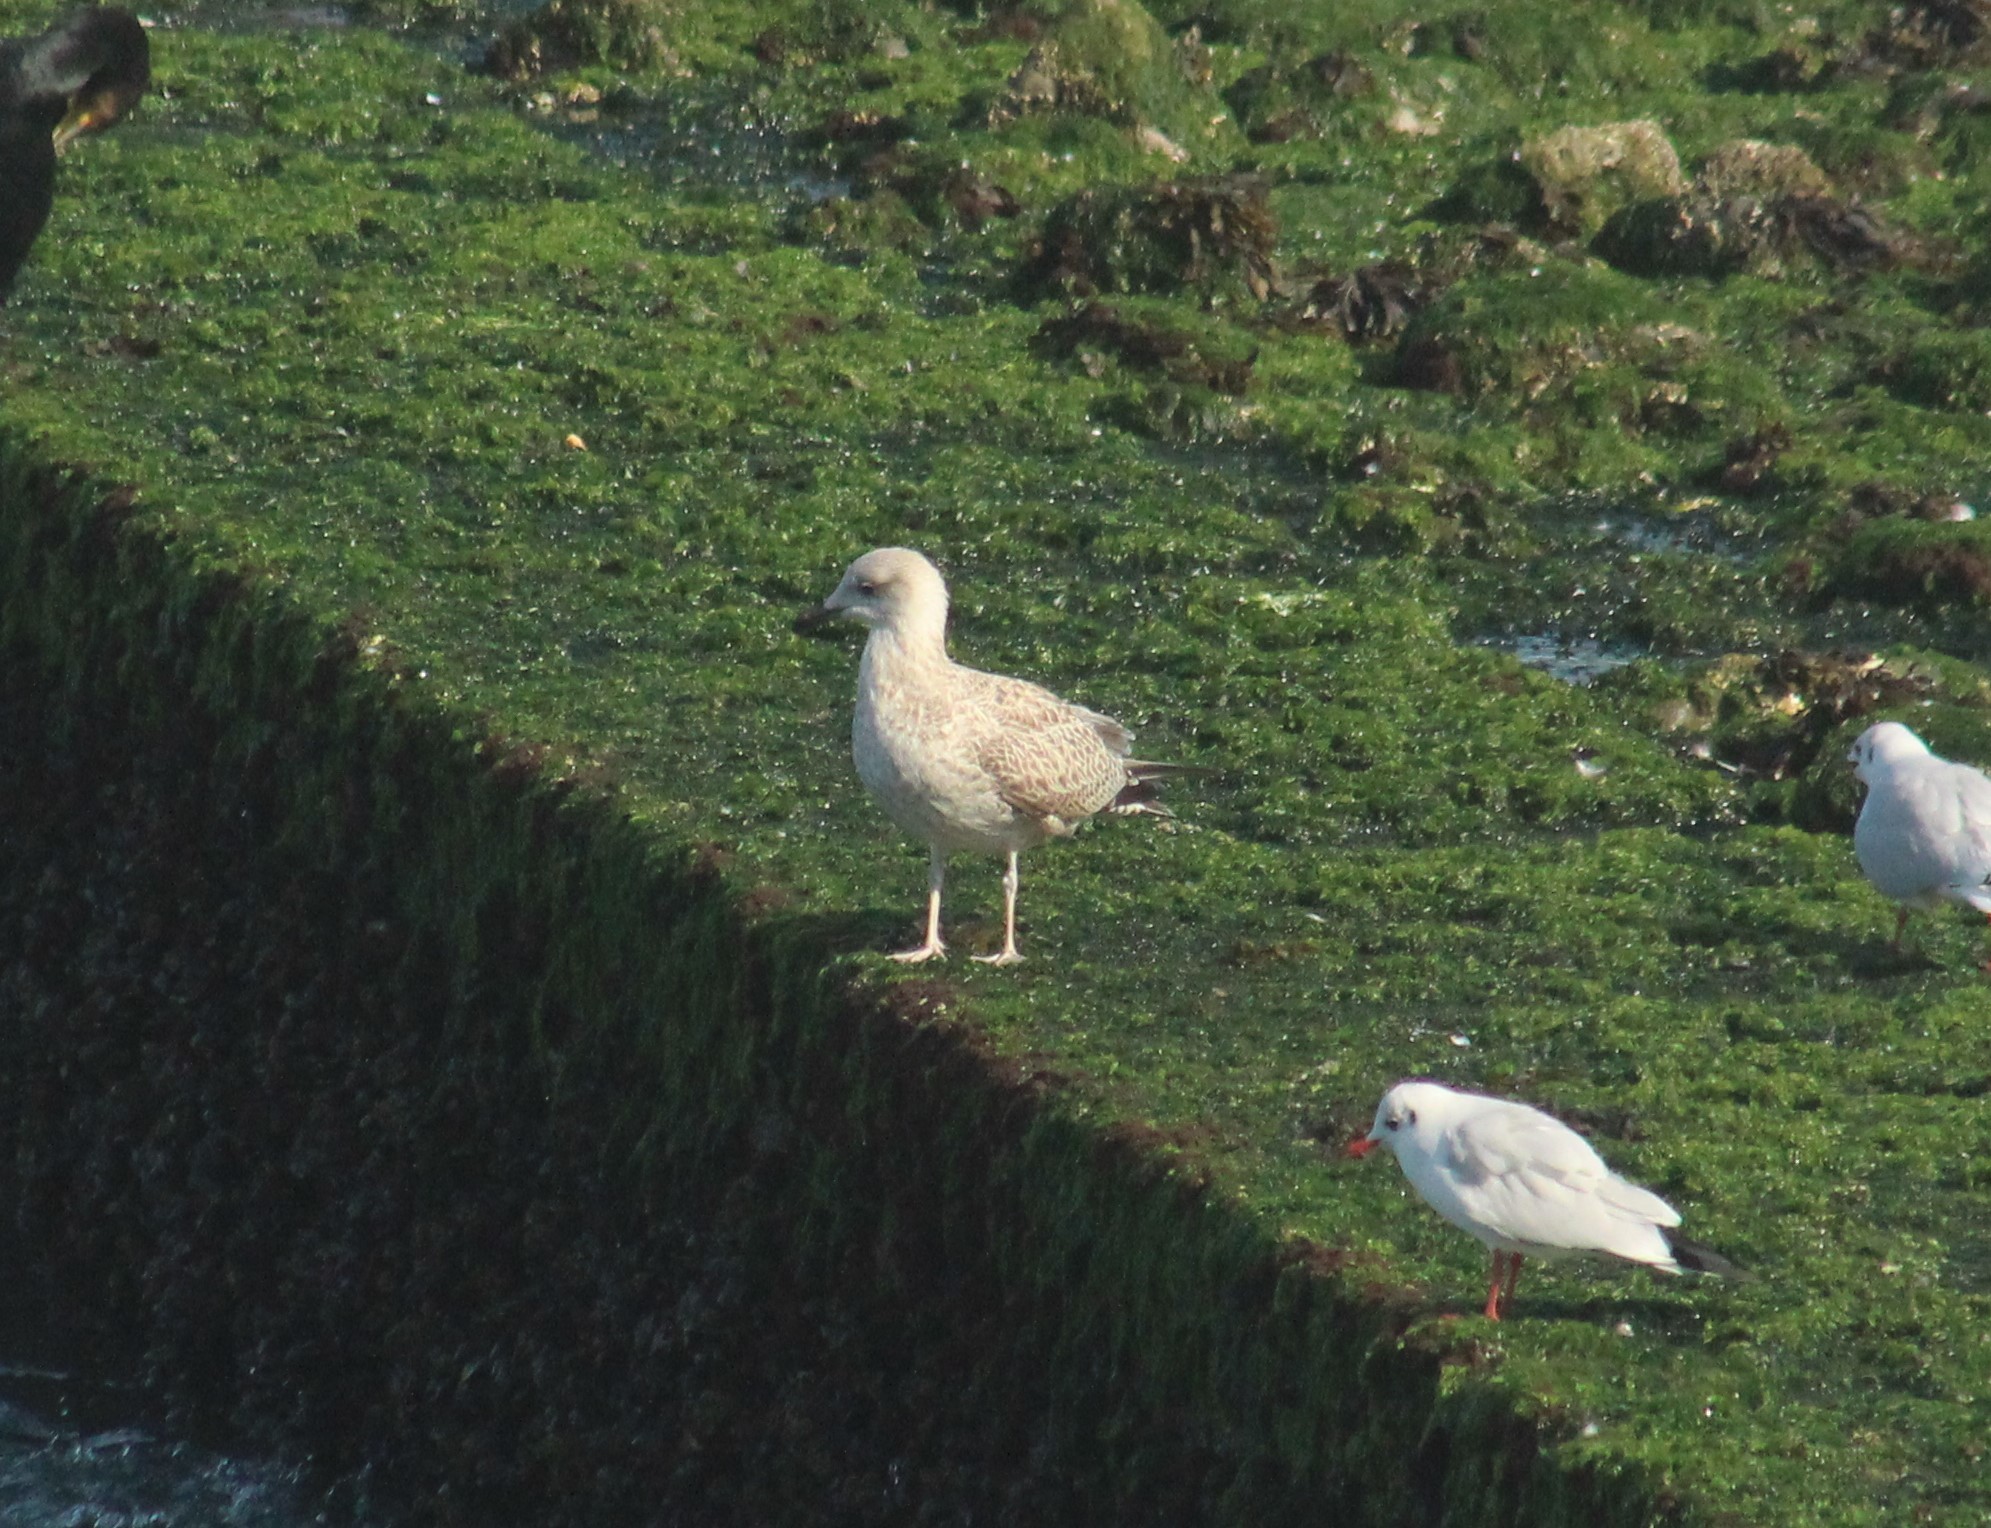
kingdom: Animalia
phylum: Chordata
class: Aves
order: Charadriiformes
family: Laridae
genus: Larus
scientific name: Larus argentatus
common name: Herring gull
